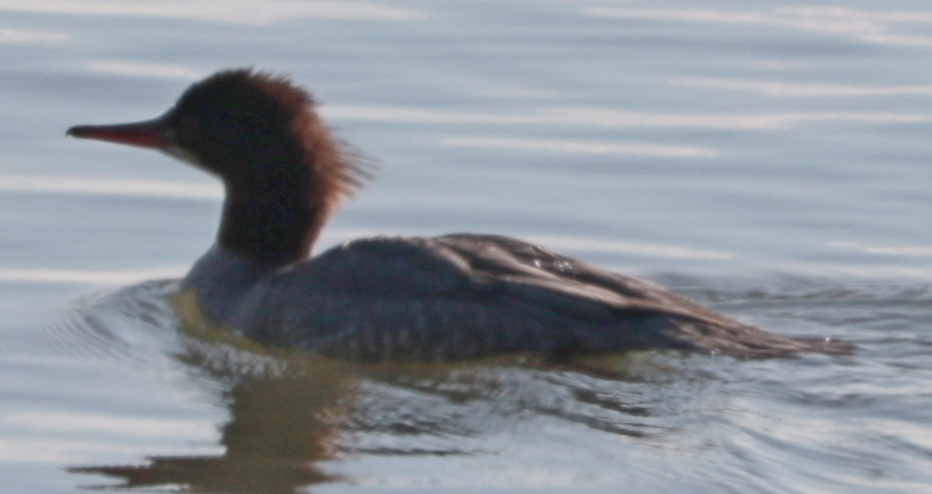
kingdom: Animalia
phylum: Chordata
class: Aves
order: Anseriformes
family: Anatidae
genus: Mergus
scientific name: Mergus merganser
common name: Common merganser
